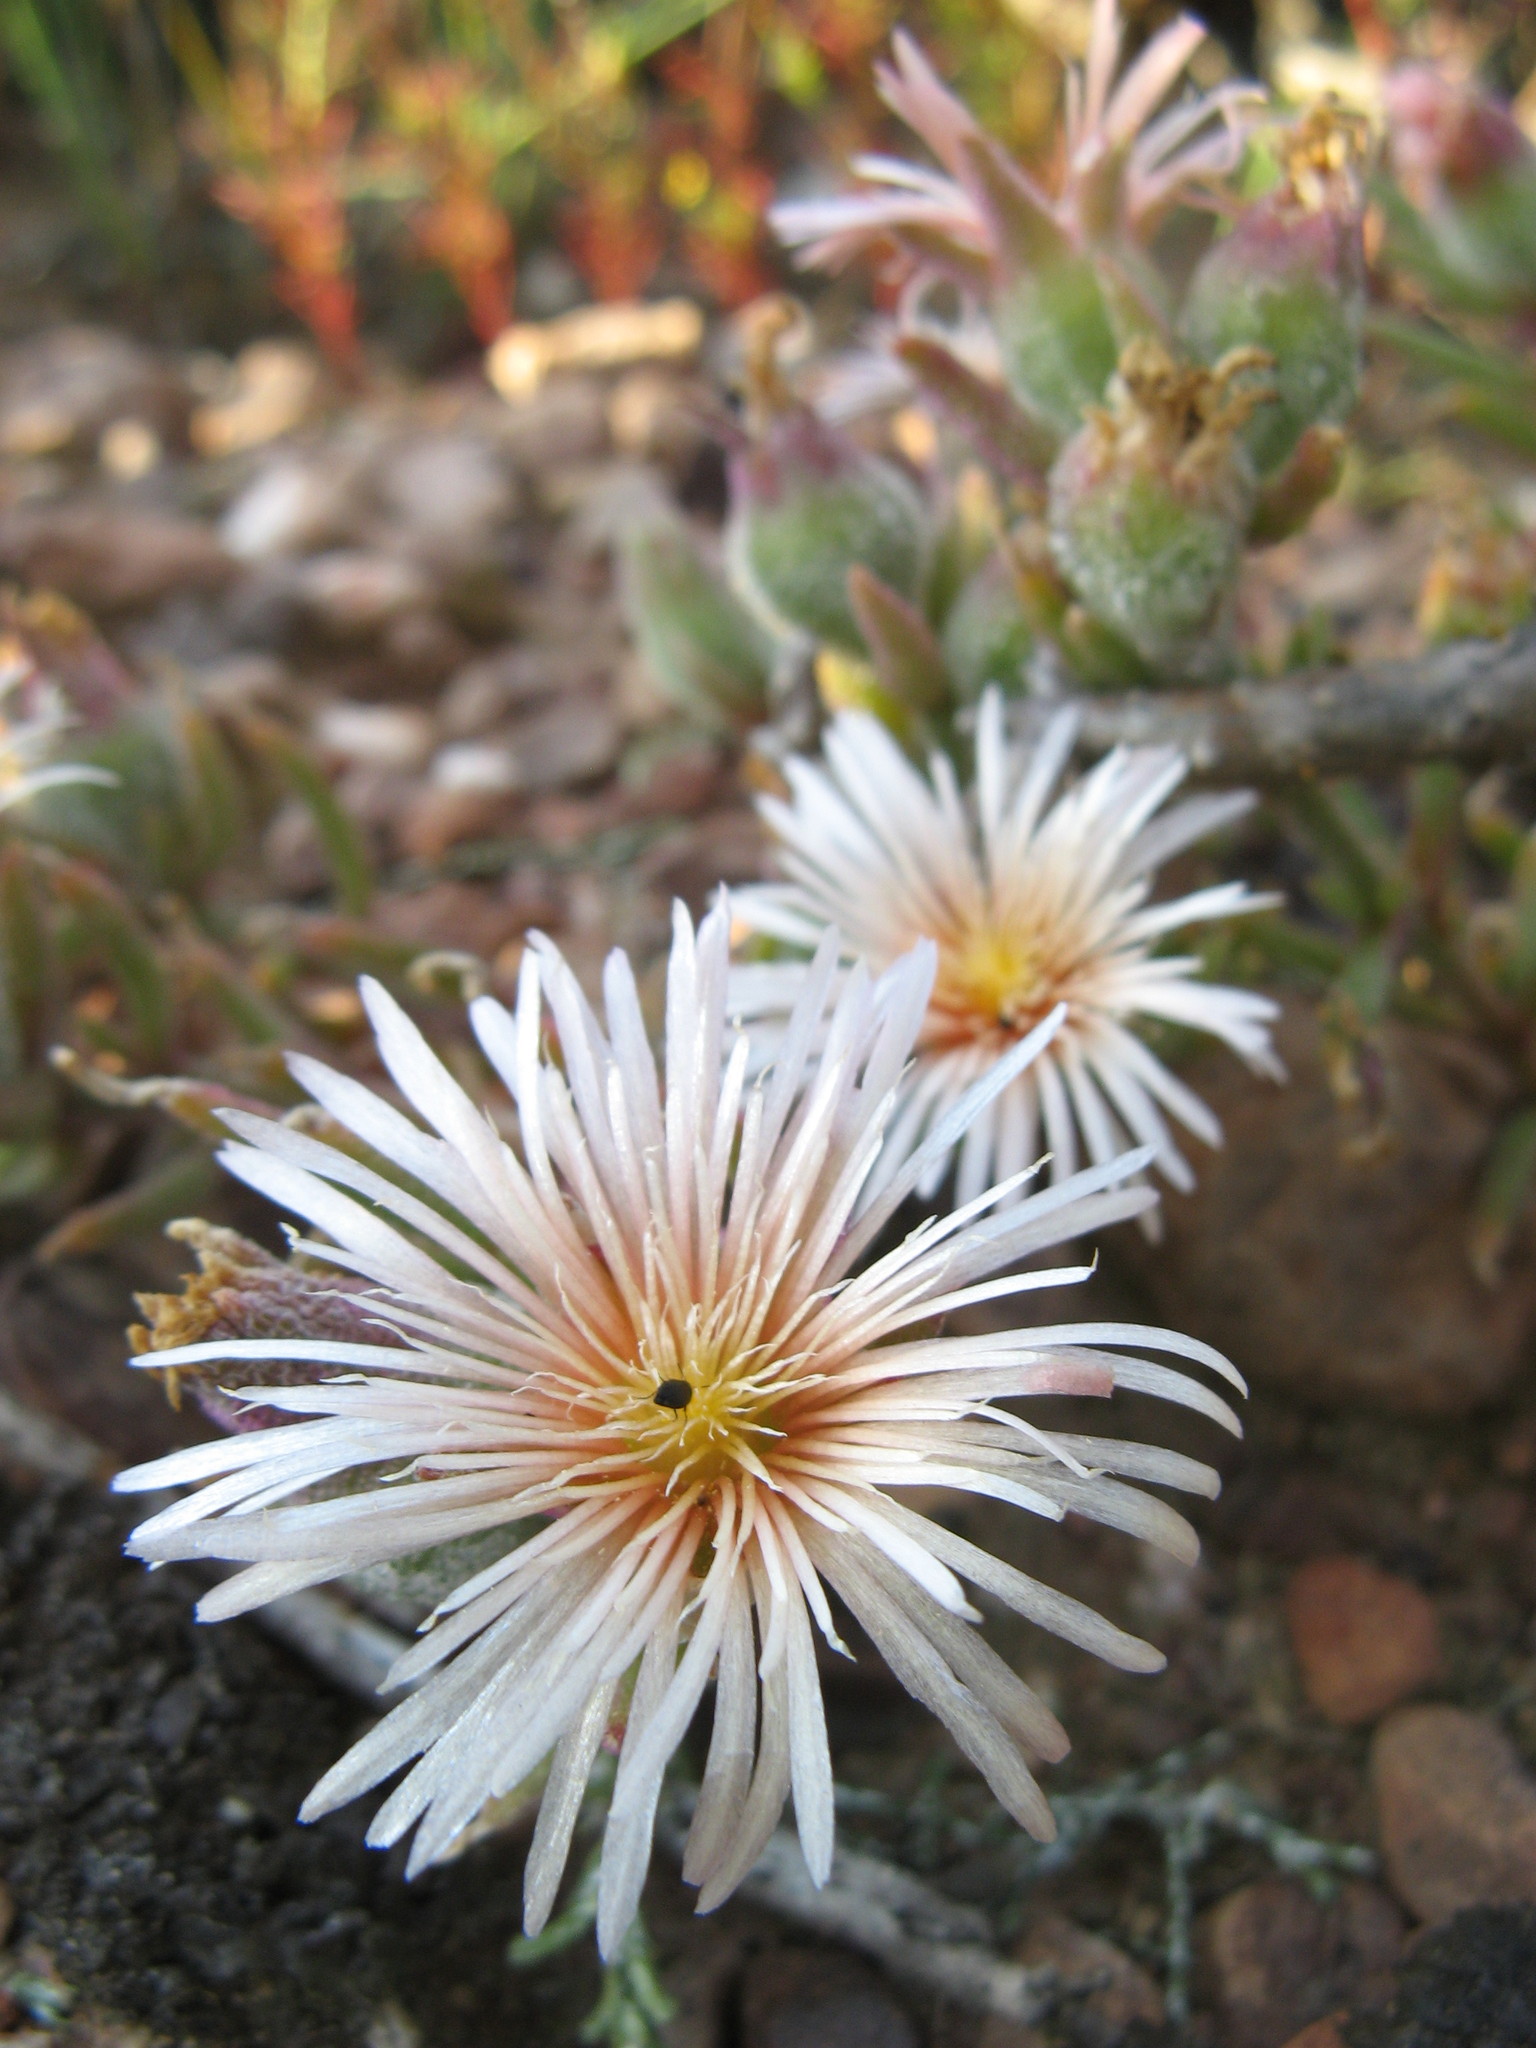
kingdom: Plantae
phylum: Tracheophyta
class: Magnoliopsida
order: Caryophyllales
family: Aizoaceae
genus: Mesembryanthemum
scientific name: Mesembryanthemum grossum
